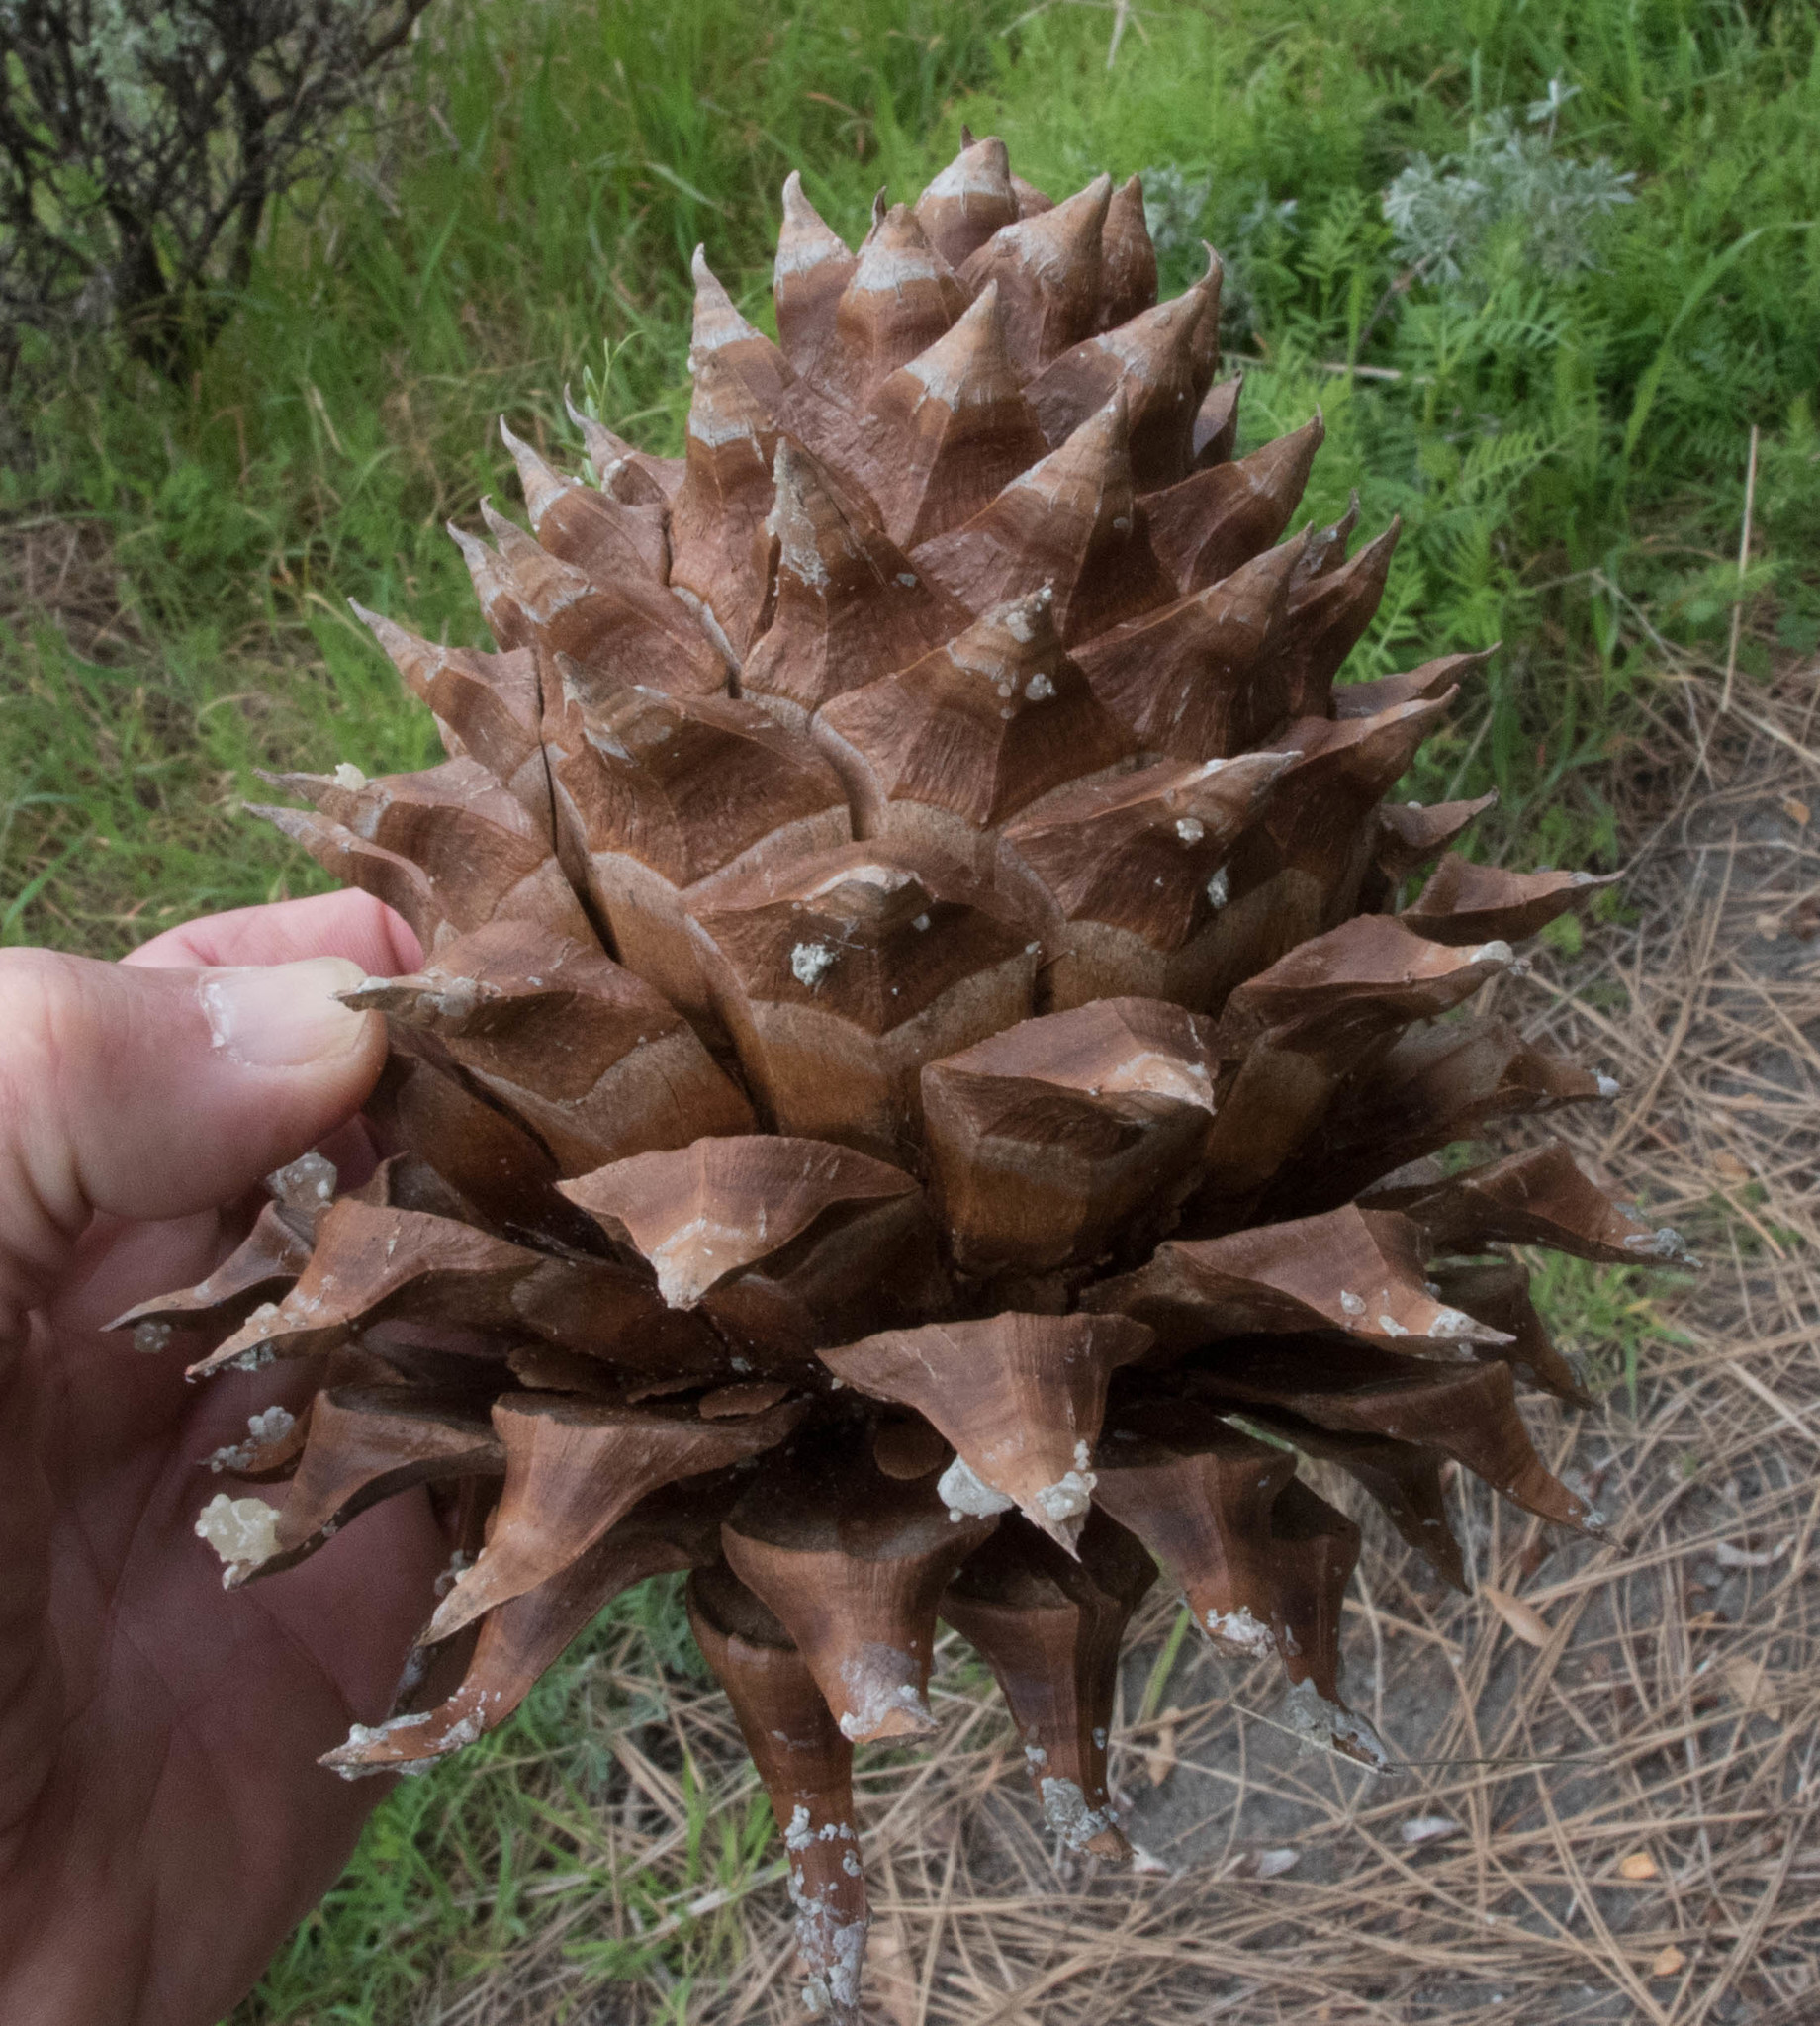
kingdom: Plantae
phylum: Tracheophyta
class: Pinopsida
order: Pinales
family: Pinaceae
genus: Pinus
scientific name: Pinus sabiniana
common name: Bull pine
